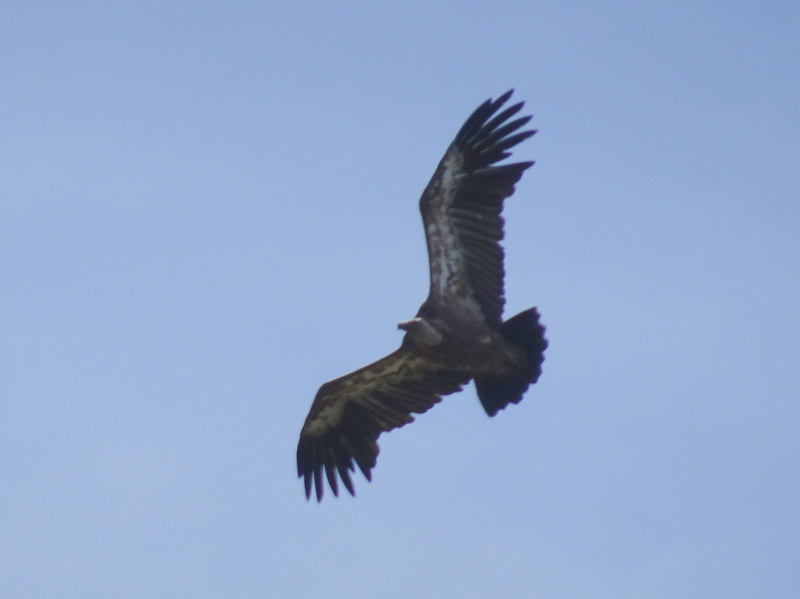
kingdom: Animalia
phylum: Chordata
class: Aves
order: Accipitriformes
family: Accipitridae
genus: Gyps
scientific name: Gyps fulvus
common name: Griffon vulture
